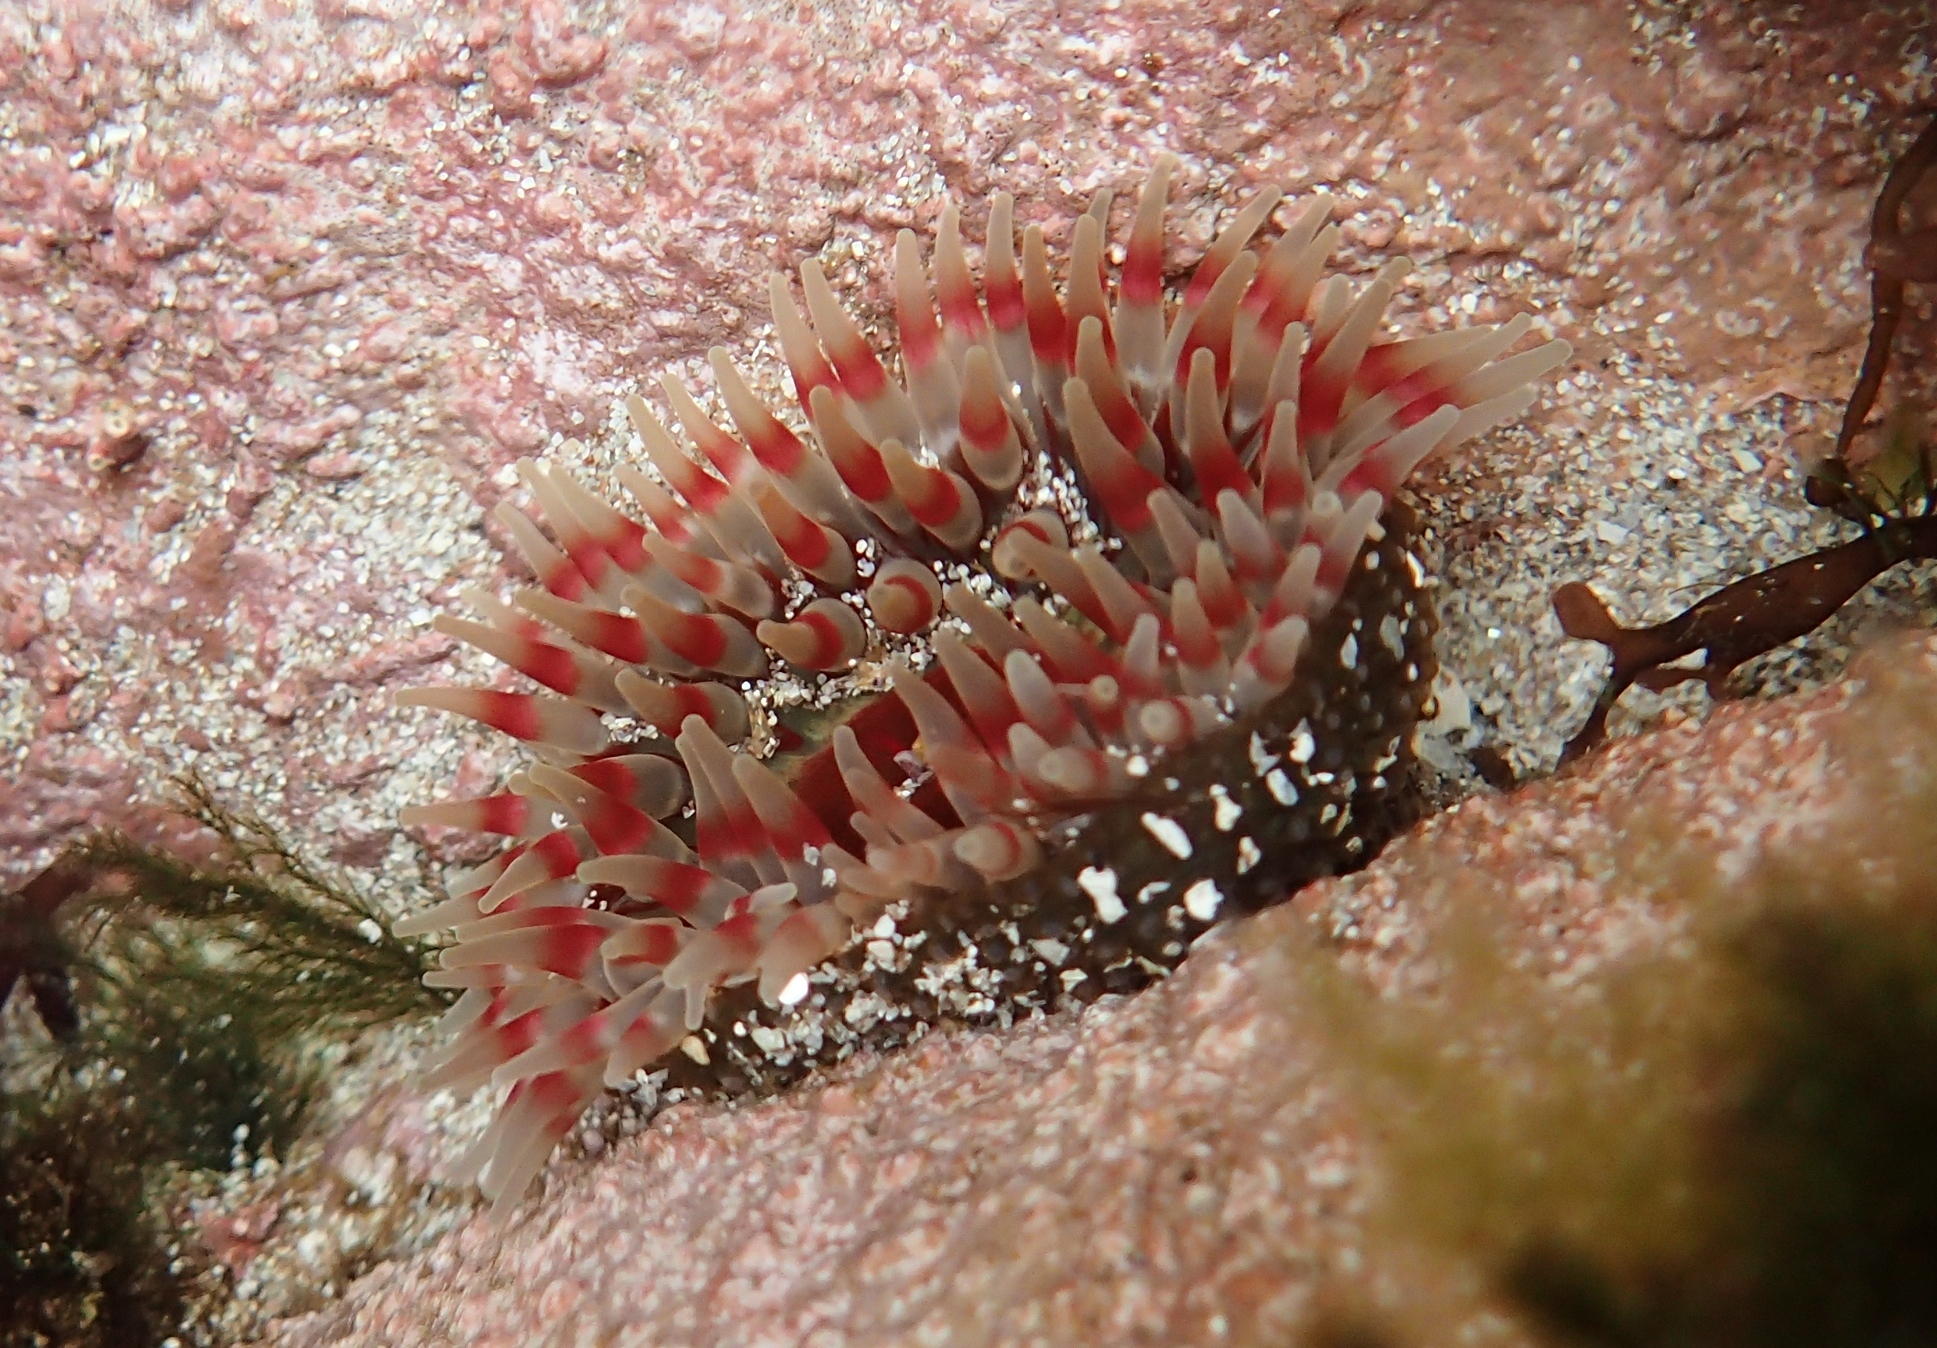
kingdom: Animalia
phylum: Cnidaria
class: Anthozoa
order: Actiniaria
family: Actiniidae
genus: Urticina
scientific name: Urticina felina
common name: Dahlia anemone
